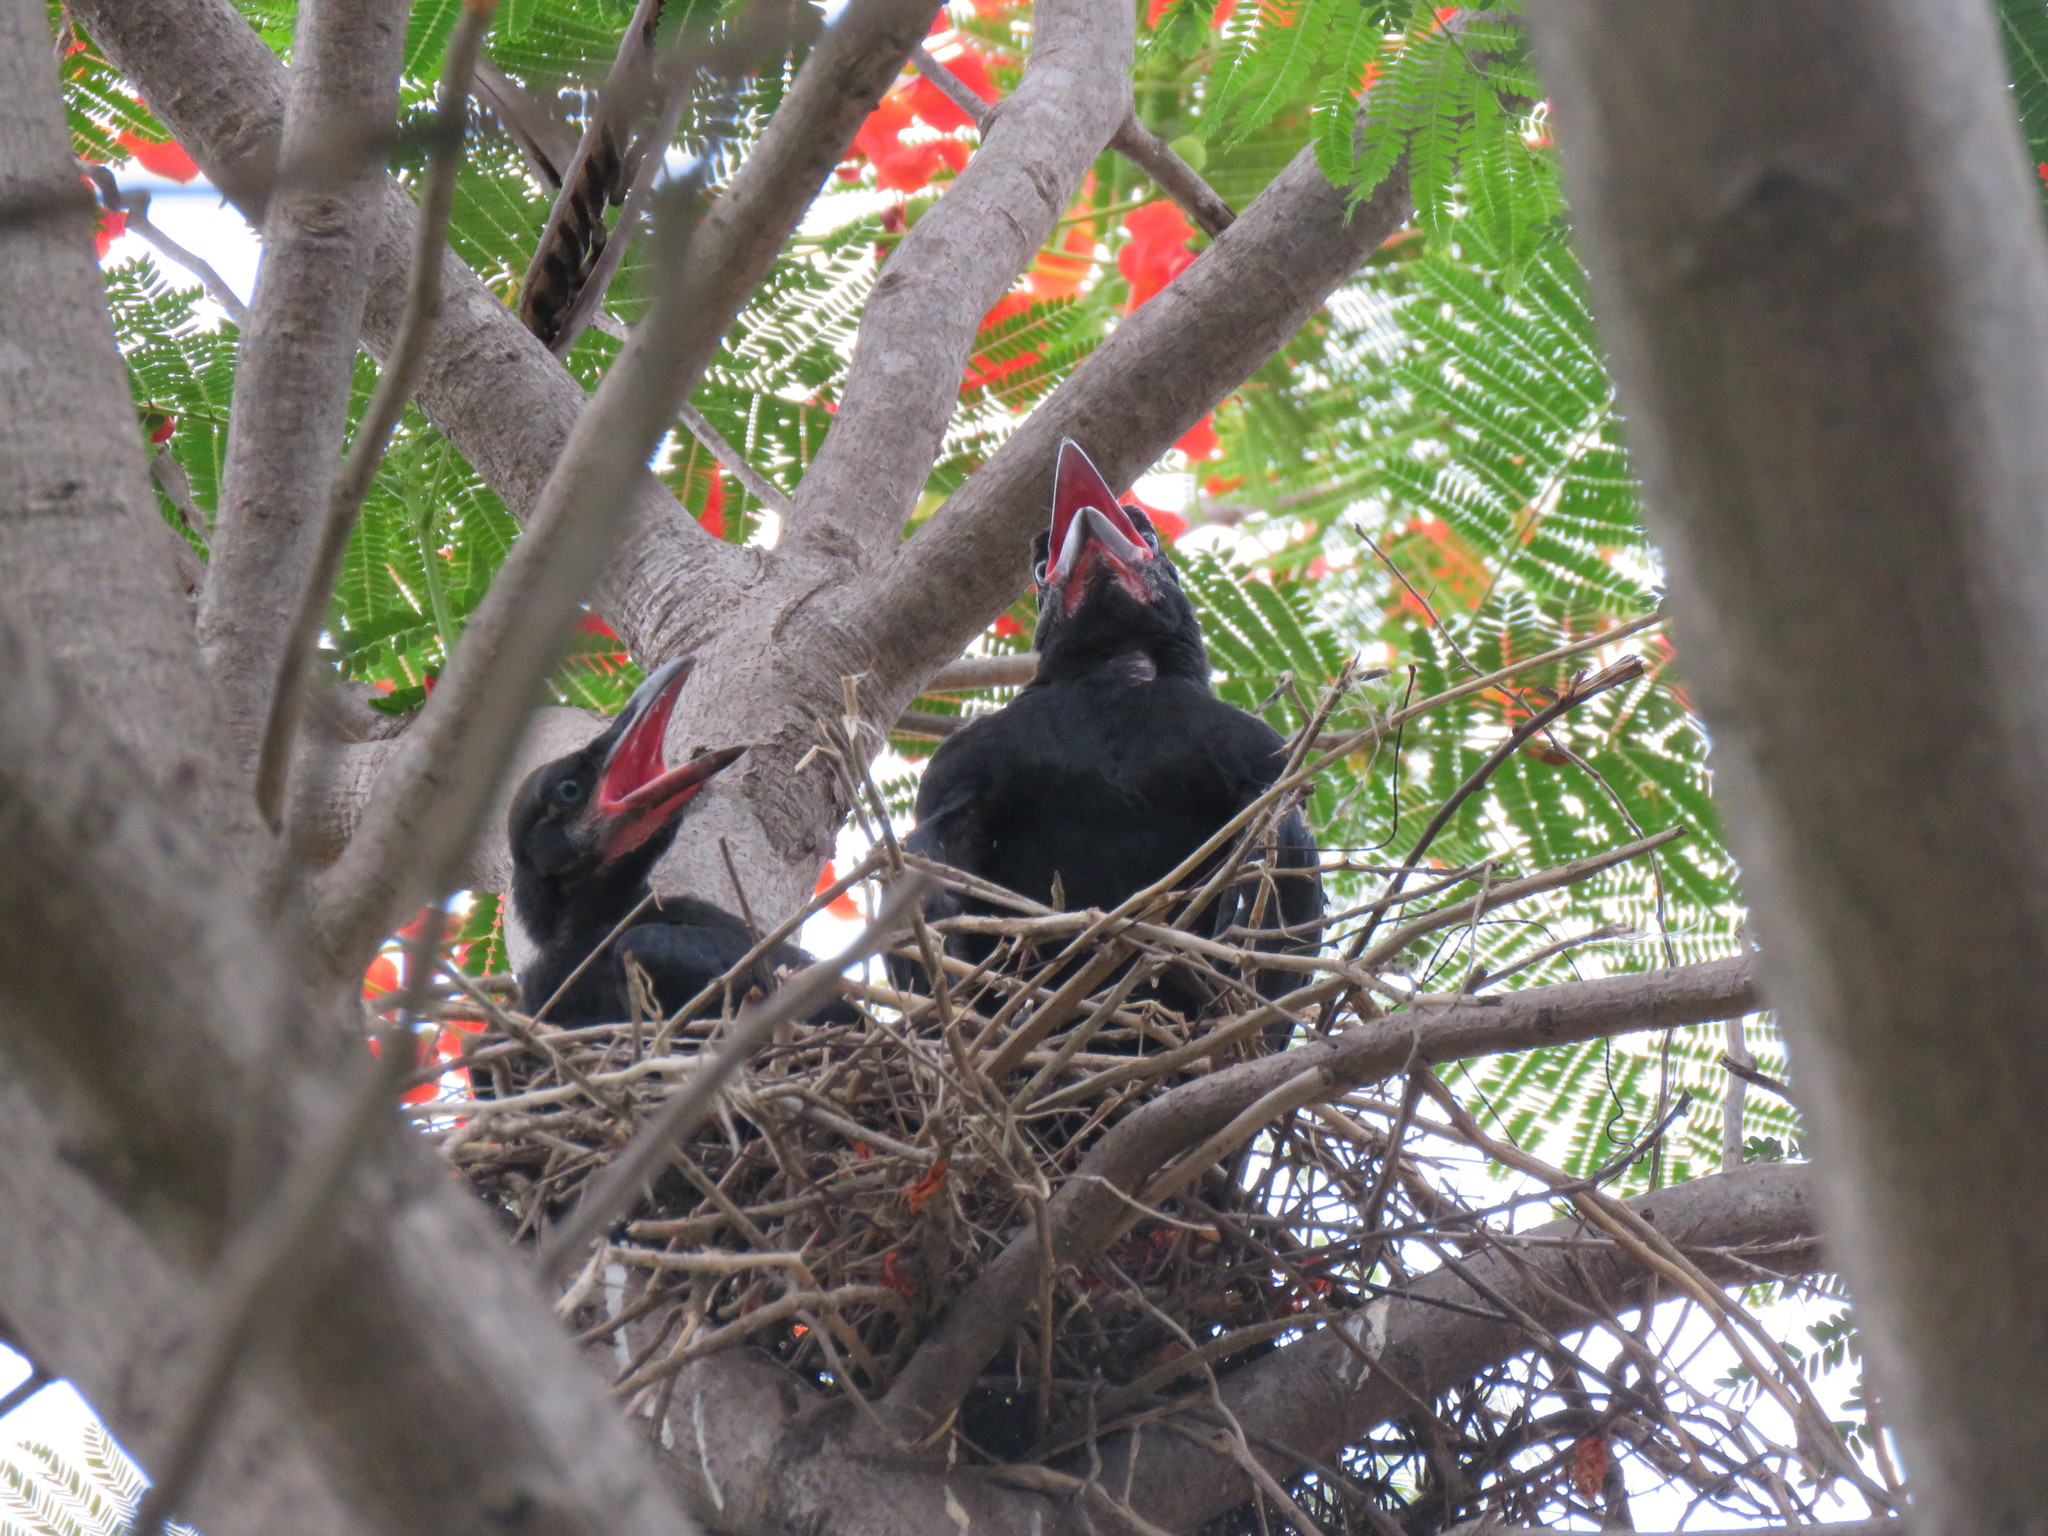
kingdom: Animalia
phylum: Chordata
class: Aves
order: Passeriformes
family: Corvidae
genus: Corvus
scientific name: Corvus macrorhynchos
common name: Large-billed crow
